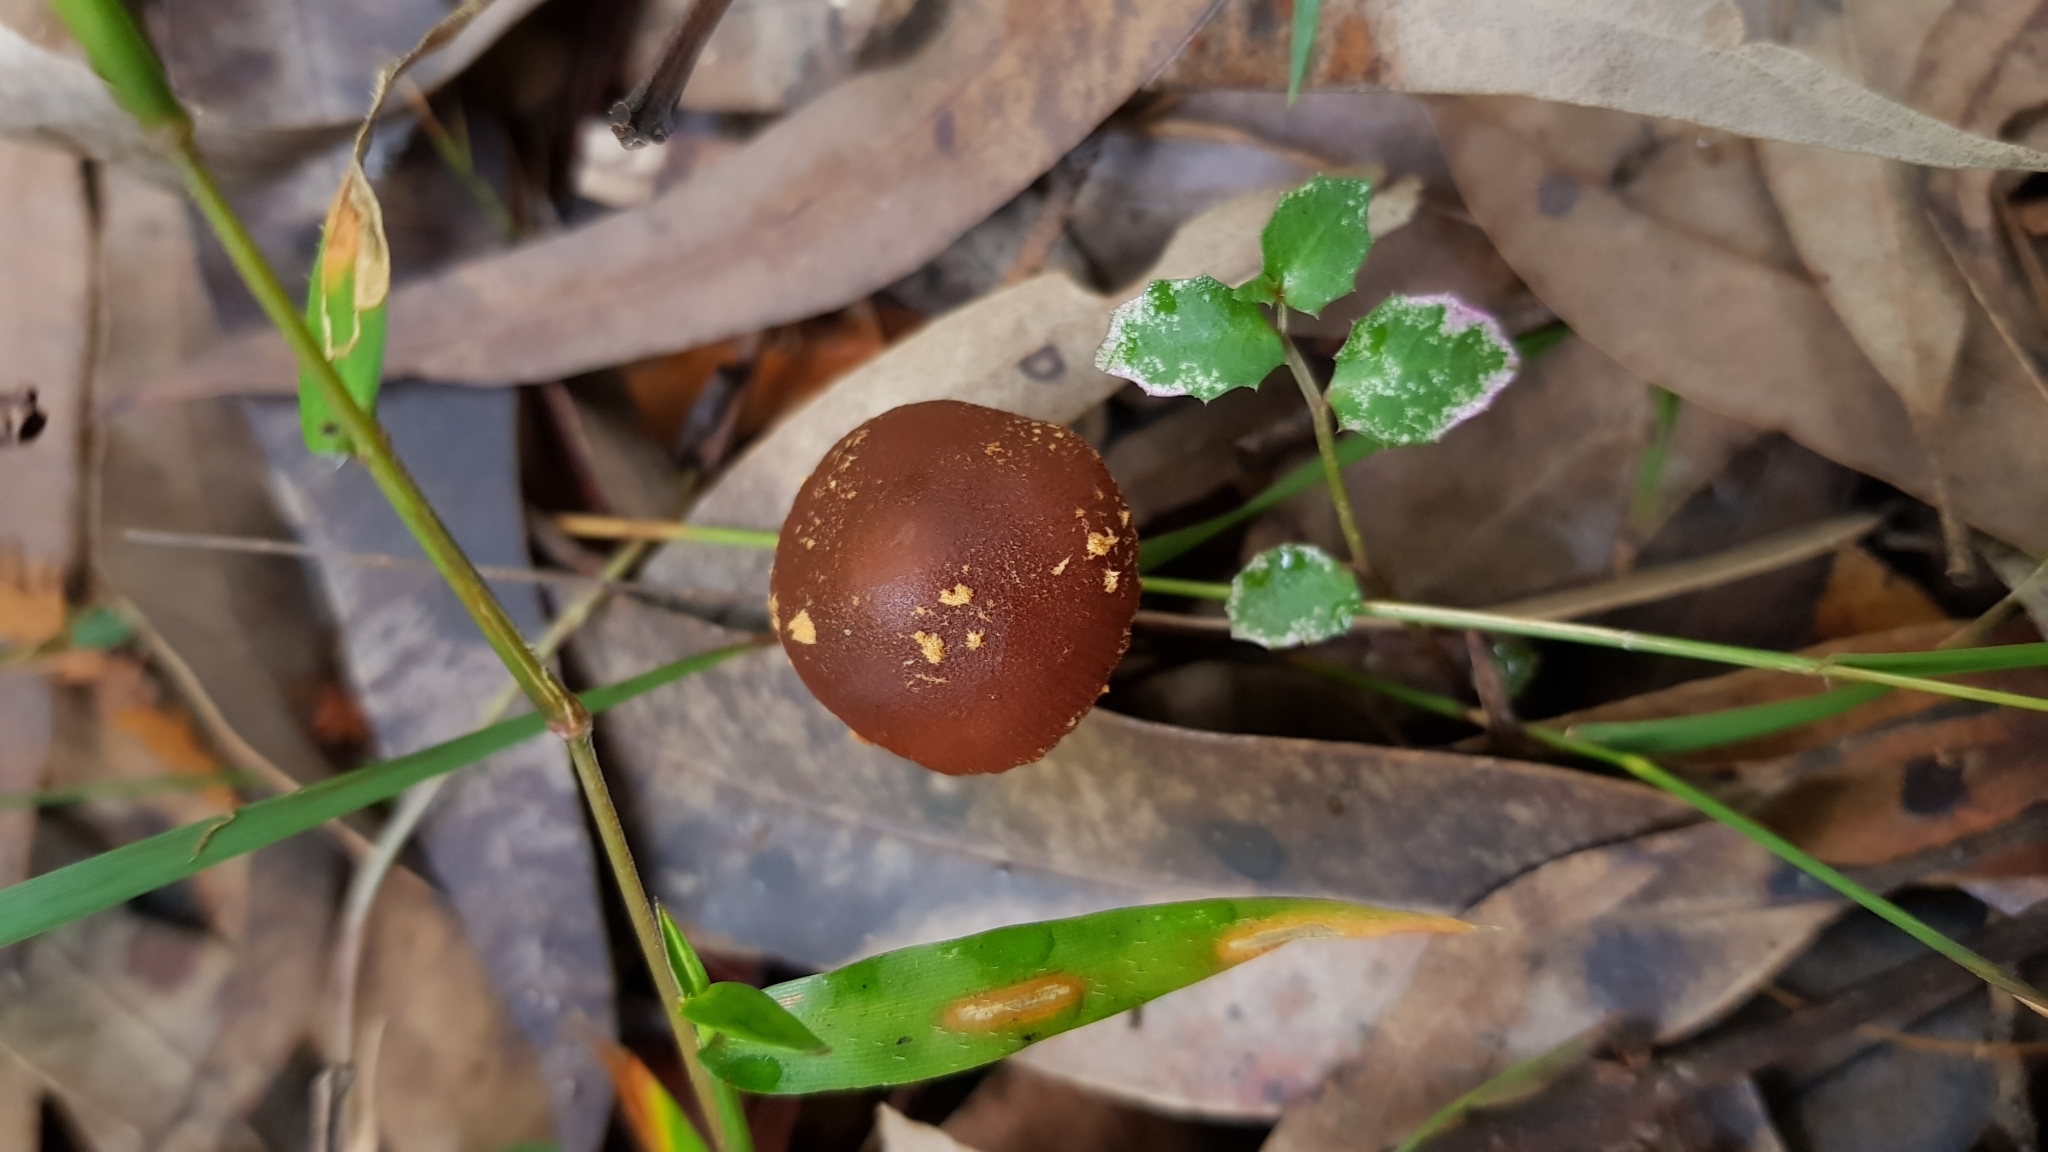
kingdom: Fungi
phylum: Basidiomycota
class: Agaricomycetes
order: Agaricales
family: Bolbitiaceae
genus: Descolea
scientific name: Descolea recedens
